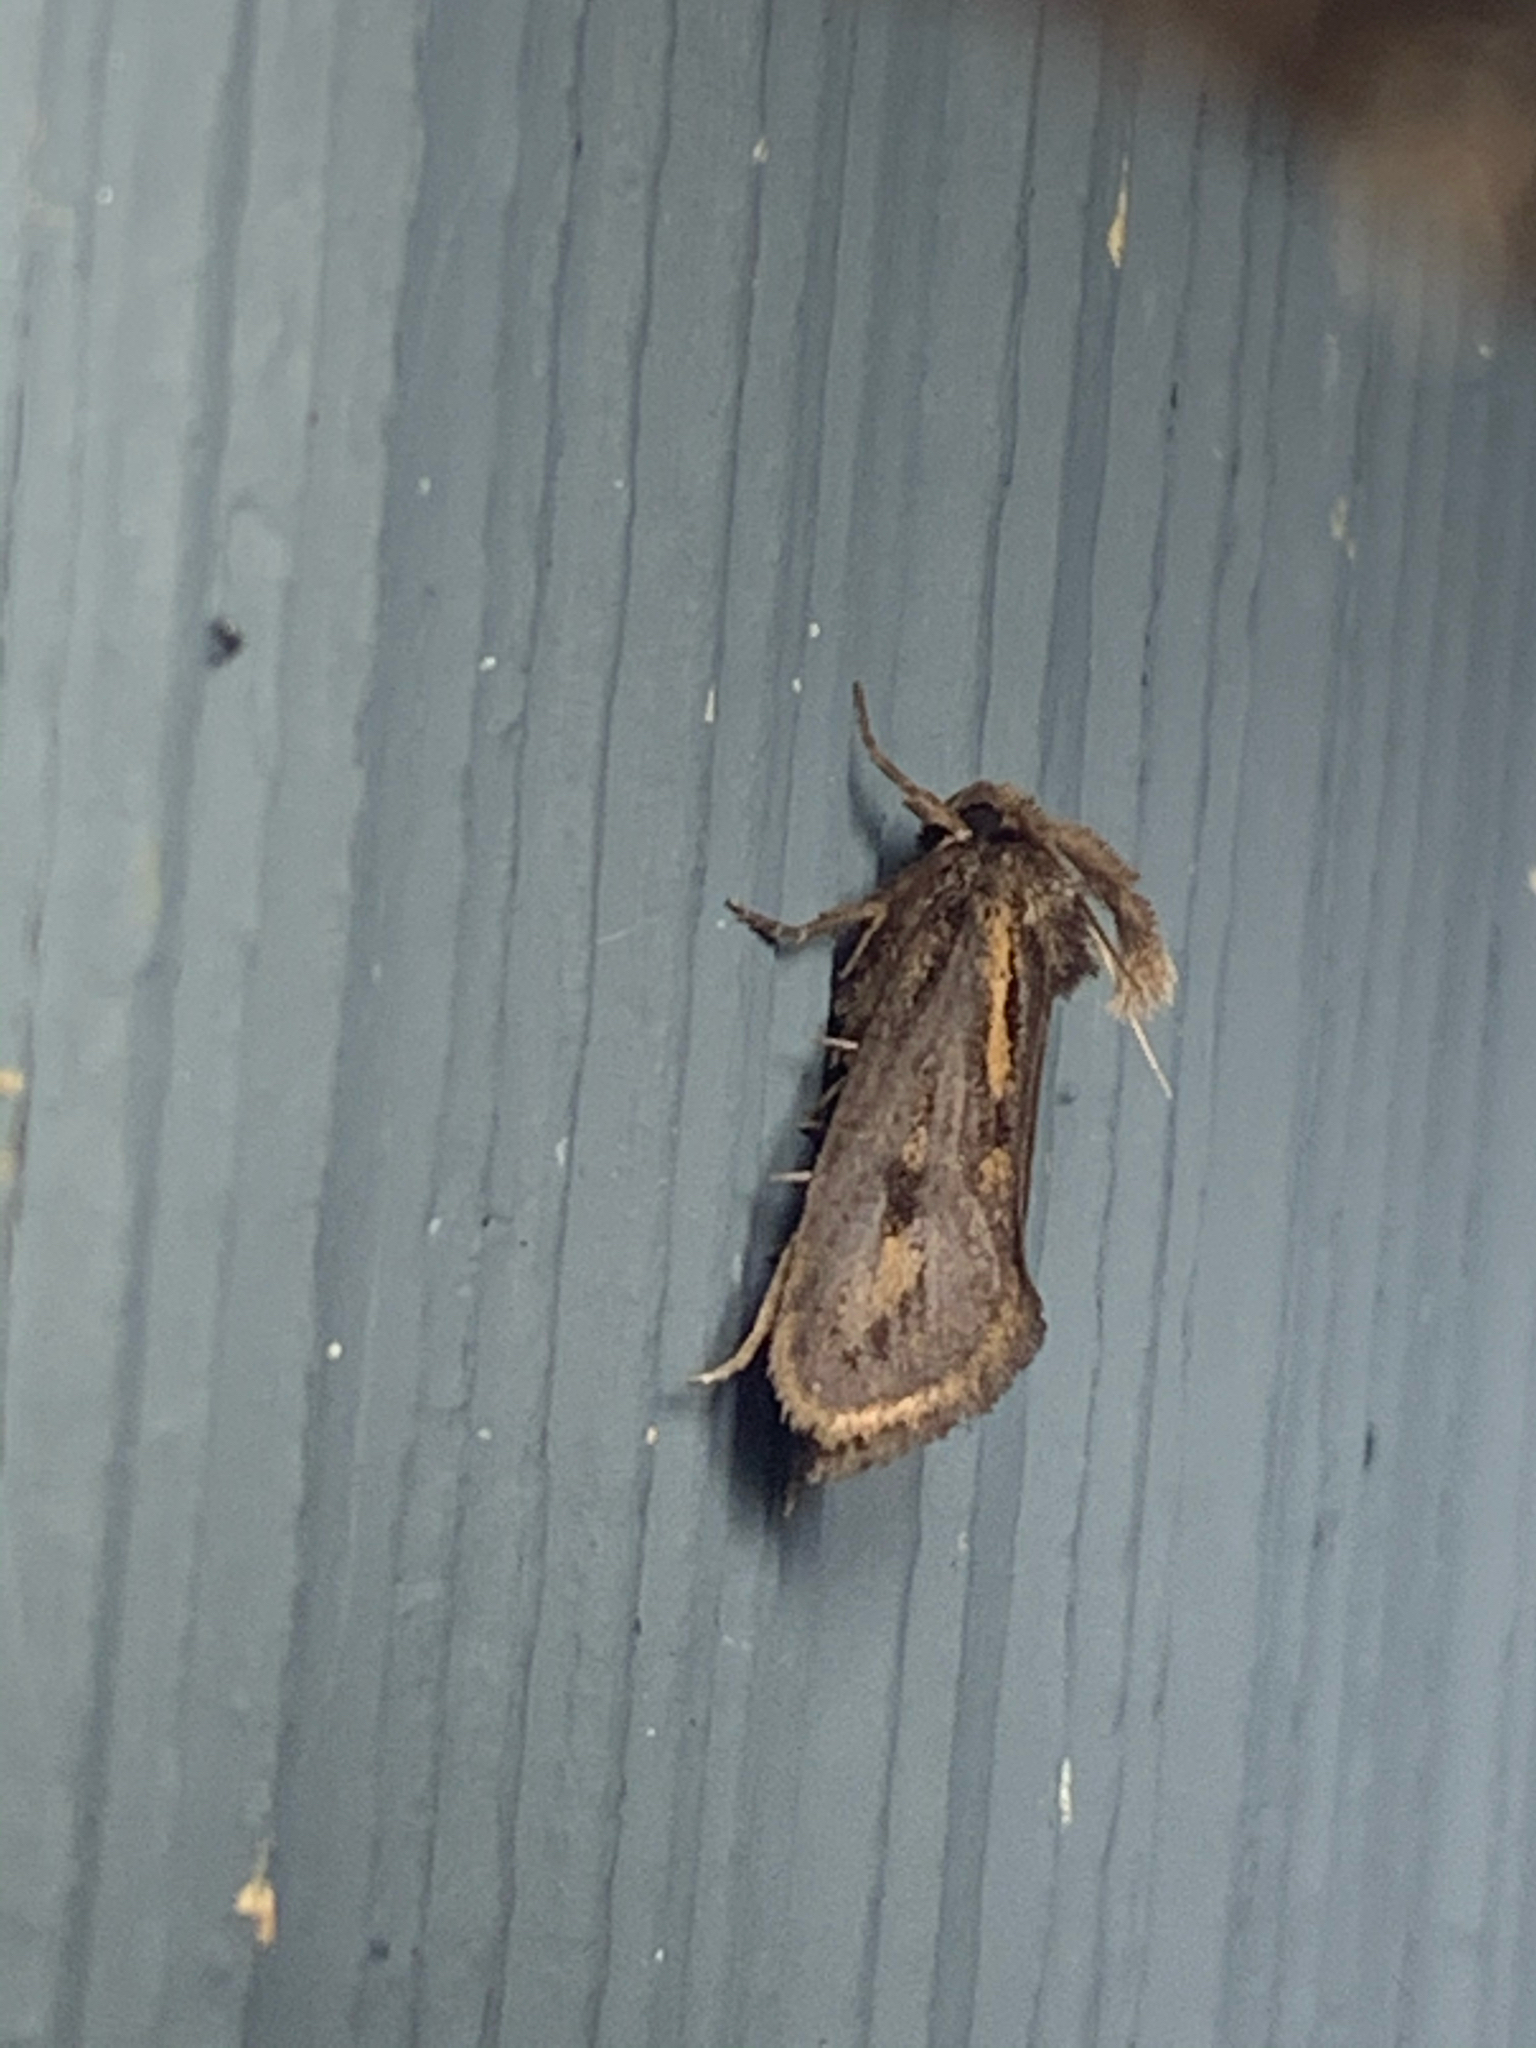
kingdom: Animalia
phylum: Arthropoda
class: Insecta
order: Lepidoptera
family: Tineidae
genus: Acrolophus
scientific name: Acrolophus popeanella
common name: Clemens' grass tubeworm moth
